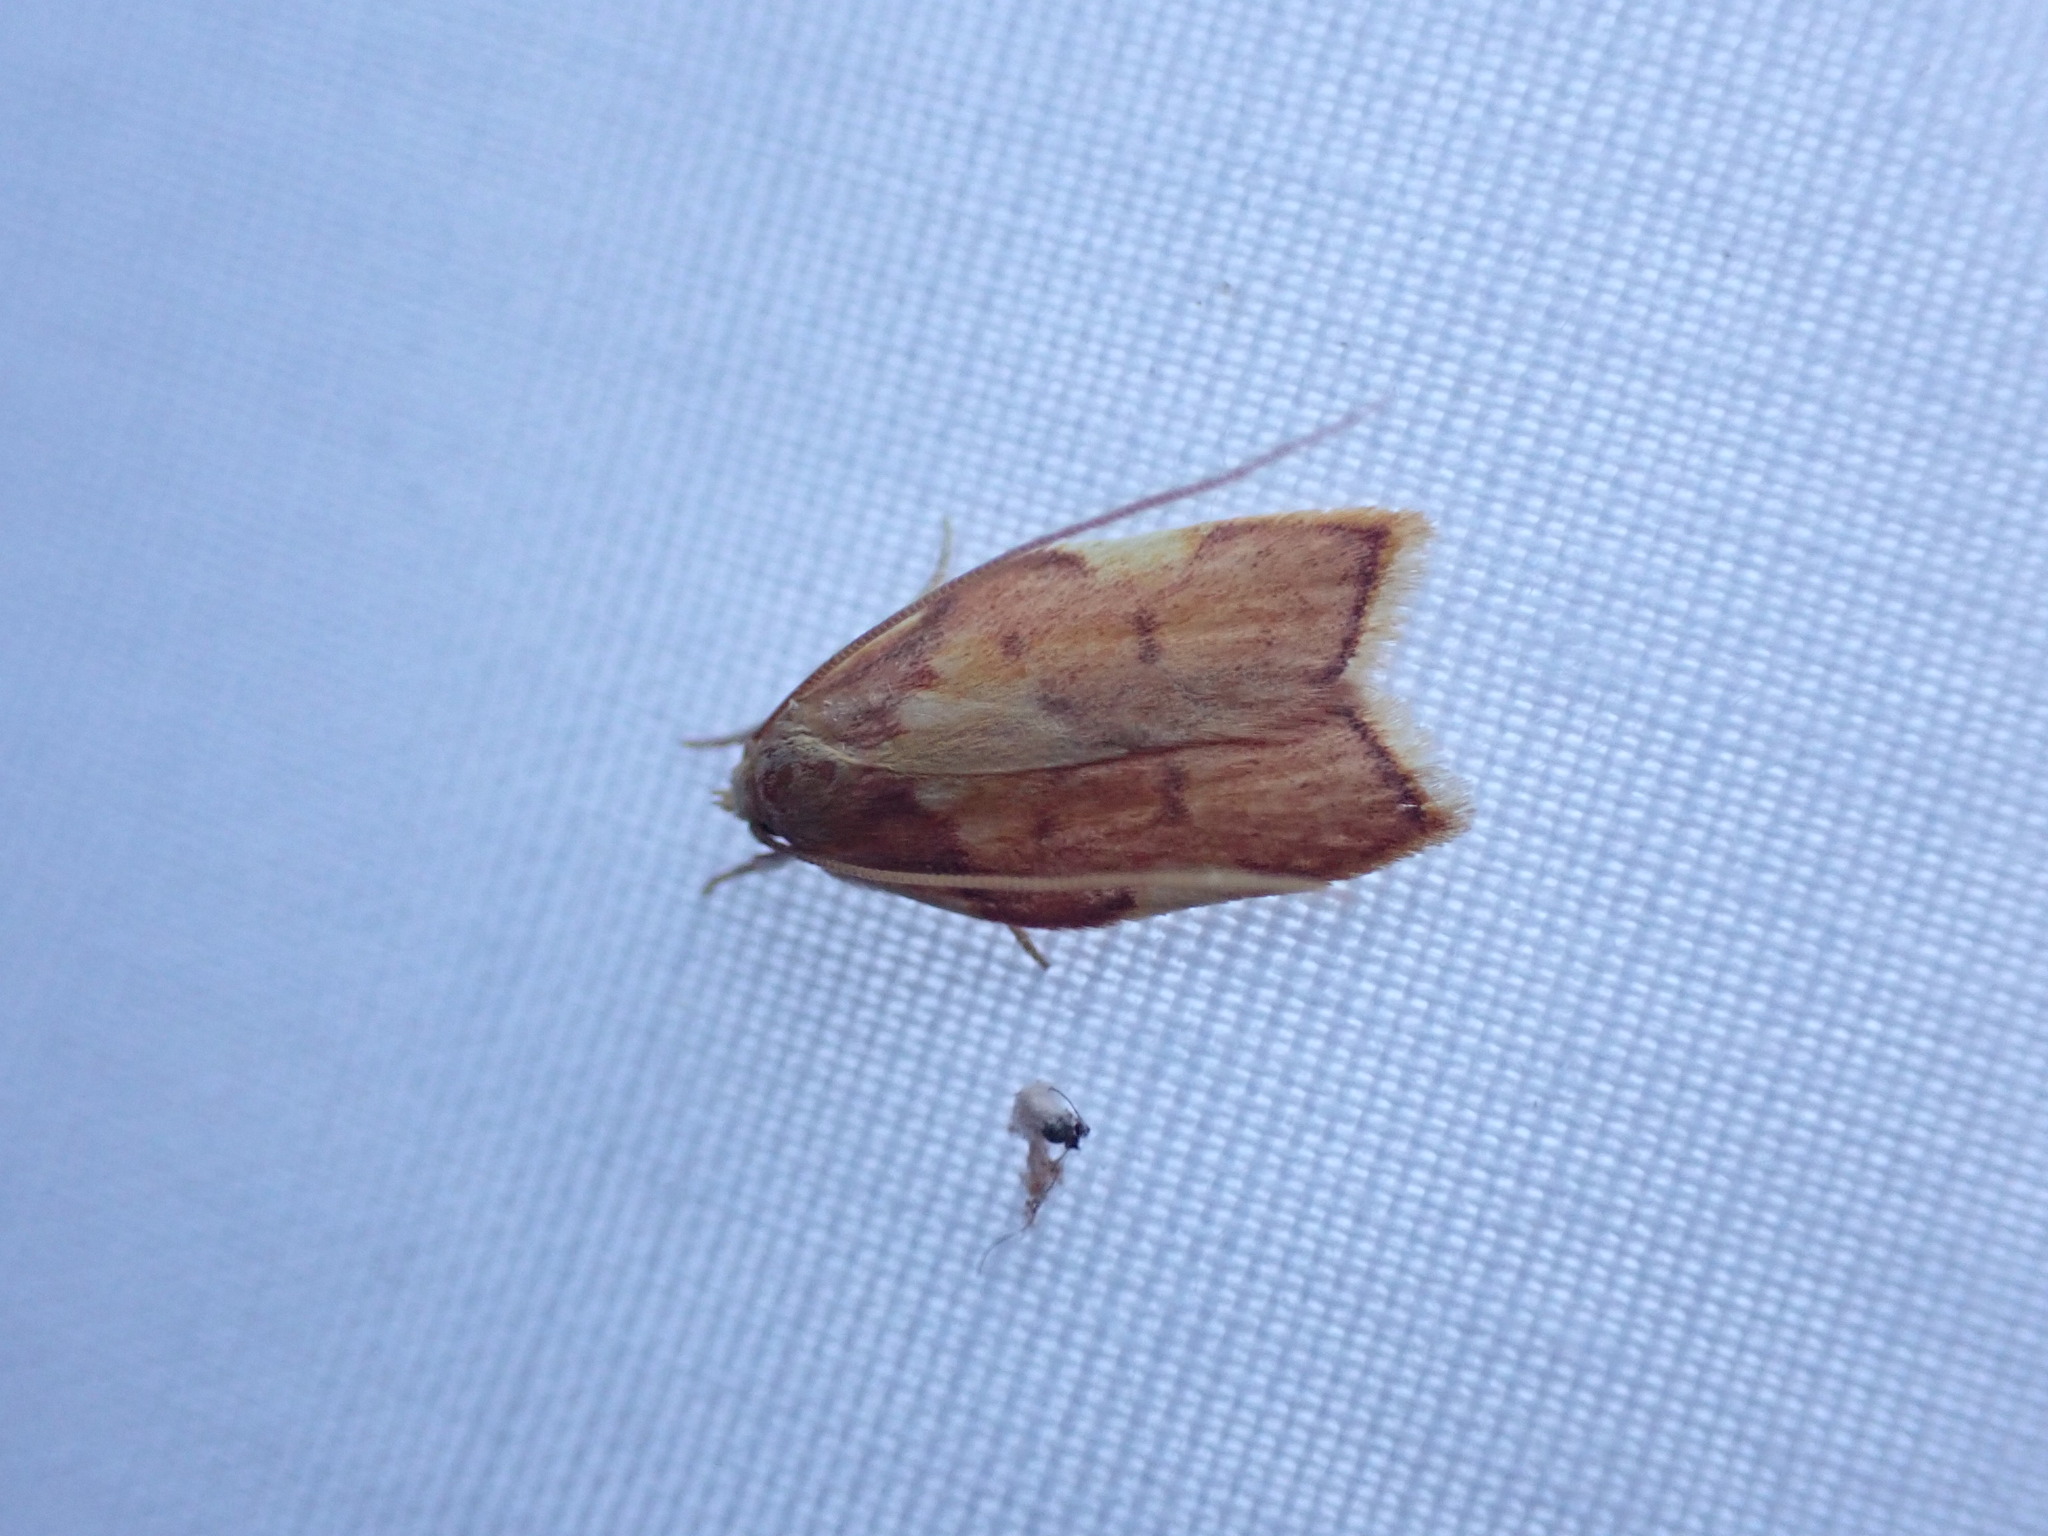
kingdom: Animalia
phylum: Arthropoda
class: Insecta
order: Lepidoptera
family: Peleopodidae
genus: Carcina
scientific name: Carcina quercana
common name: Moth
